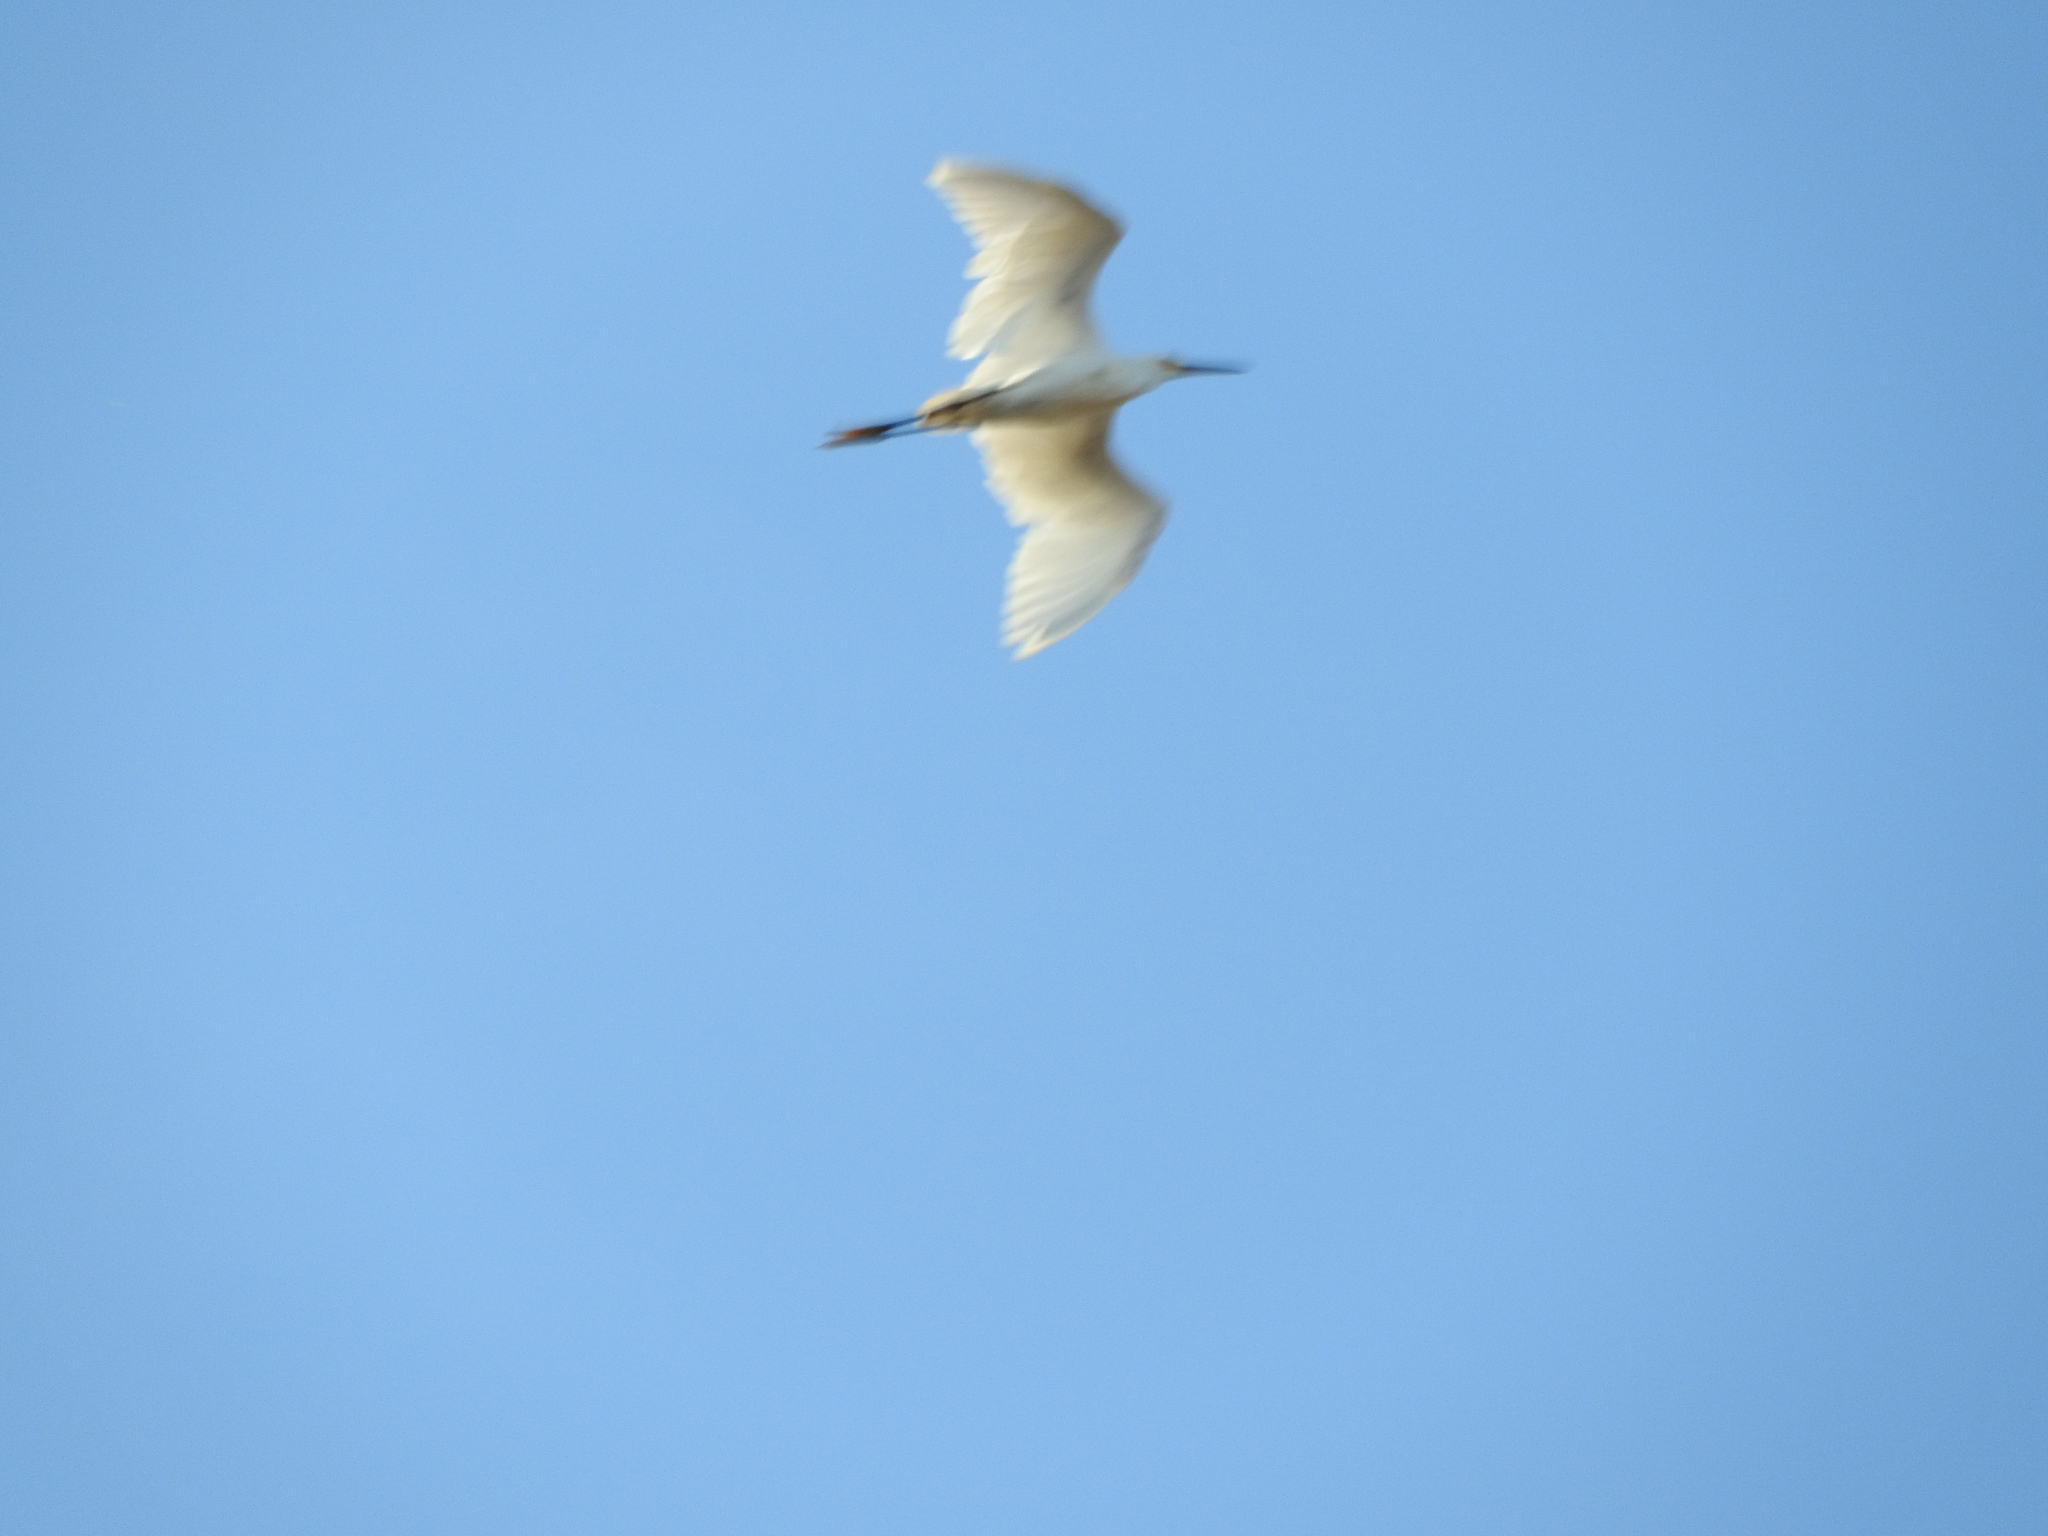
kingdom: Animalia
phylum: Chordata
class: Aves
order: Pelecaniformes
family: Ardeidae
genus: Egretta
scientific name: Egretta thula
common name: Snowy egret
